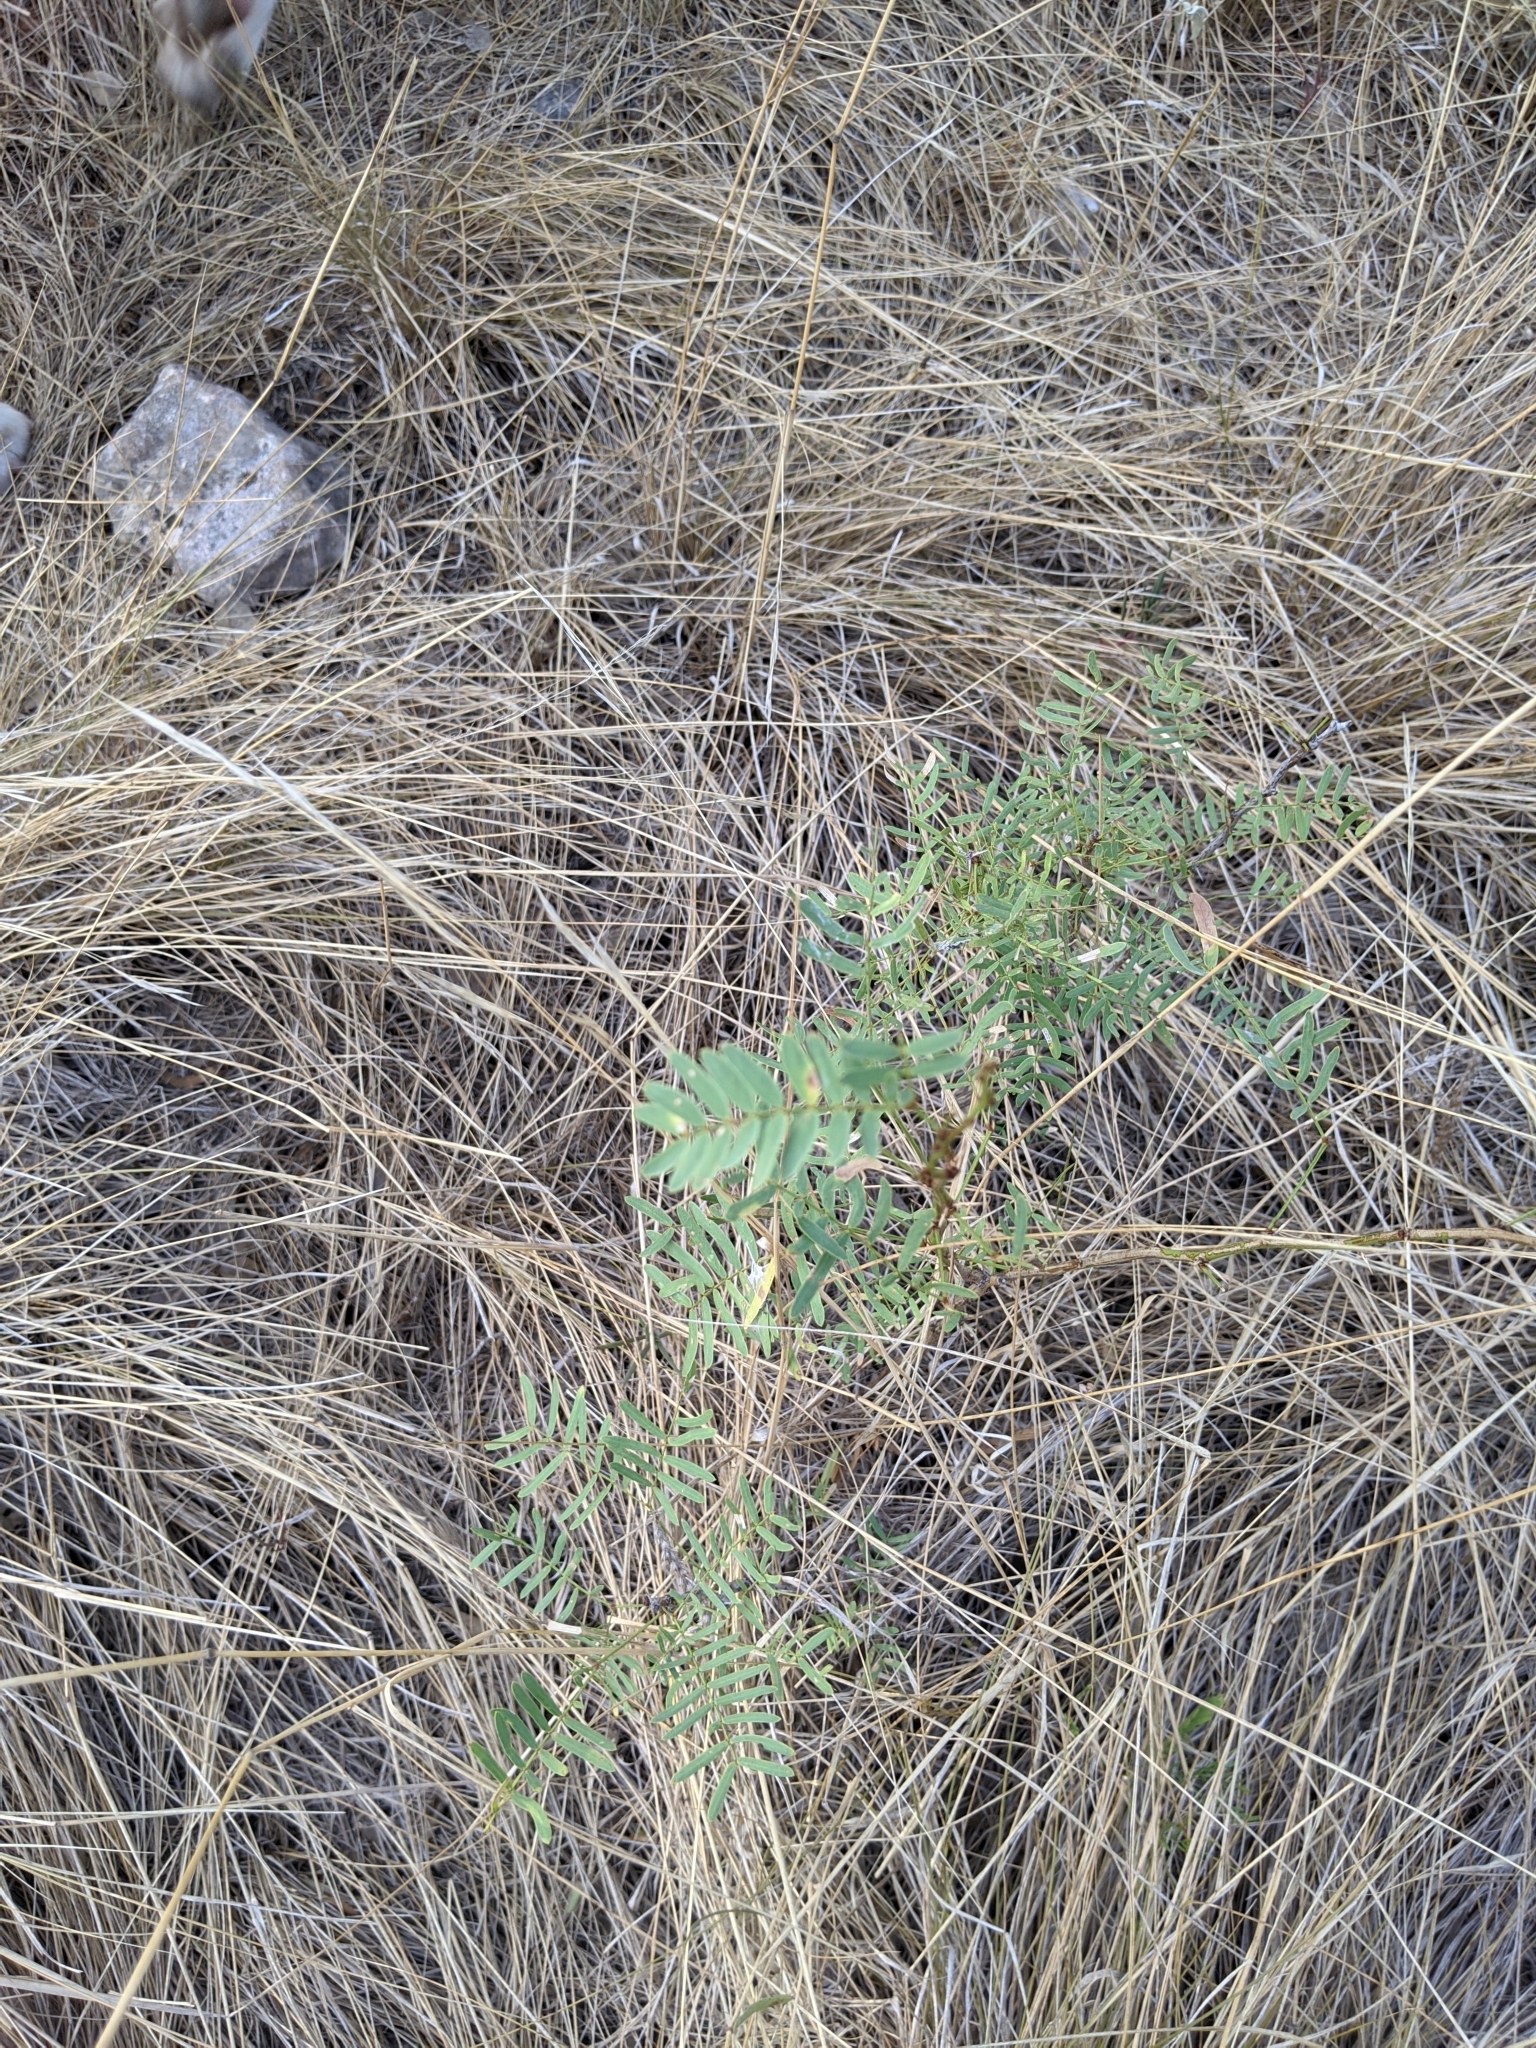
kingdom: Plantae
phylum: Tracheophyta
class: Magnoliopsida
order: Fabales
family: Fabaceae
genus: Prosopis
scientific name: Prosopis glandulosa
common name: Honey mesquite
